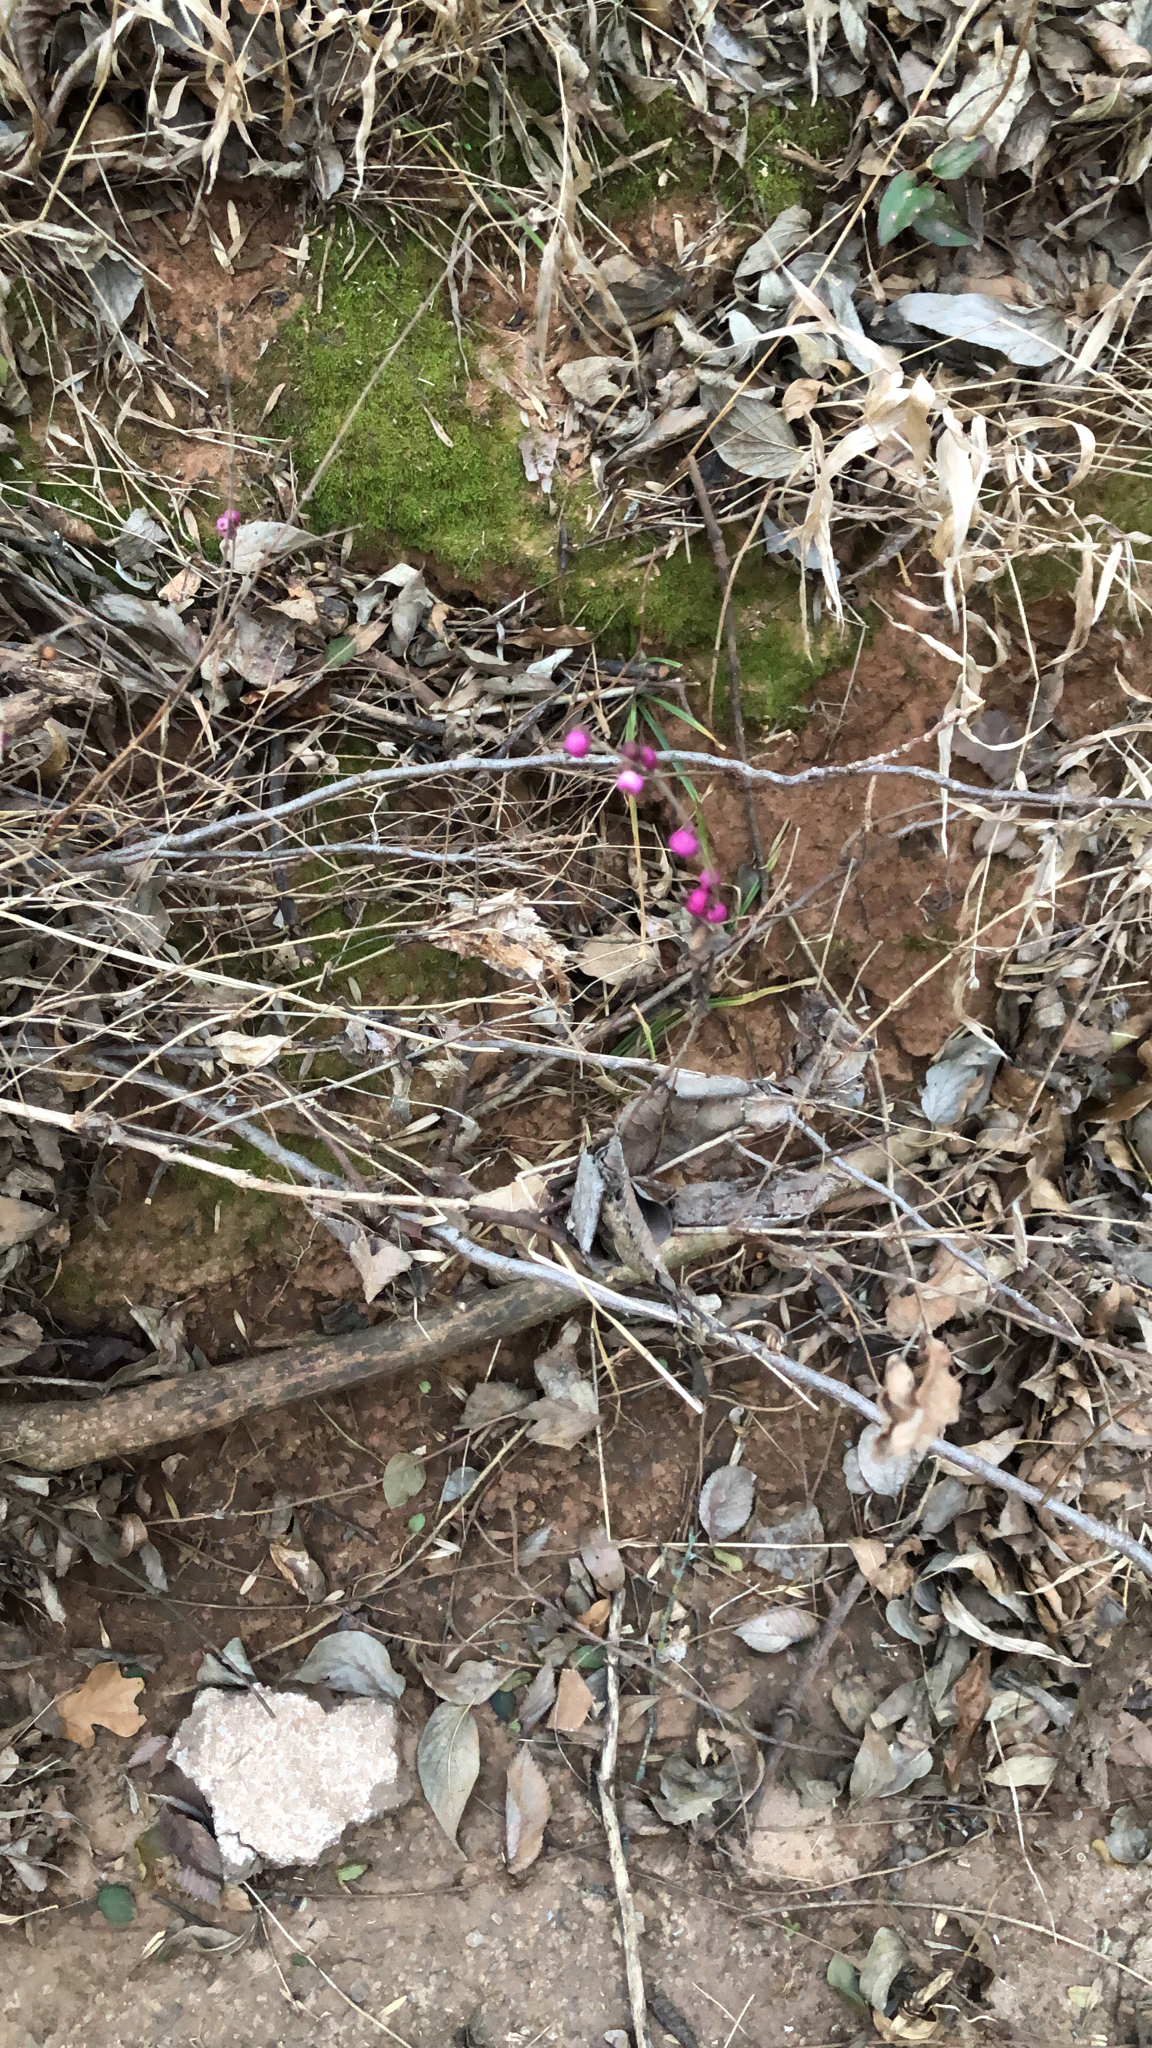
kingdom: Plantae
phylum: Tracheophyta
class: Magnoliopsida
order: Dipsacales
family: Caprifoliaceae
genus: Symphoricarpos
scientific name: Symphoricarpos orbiculatus
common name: Coralberry
